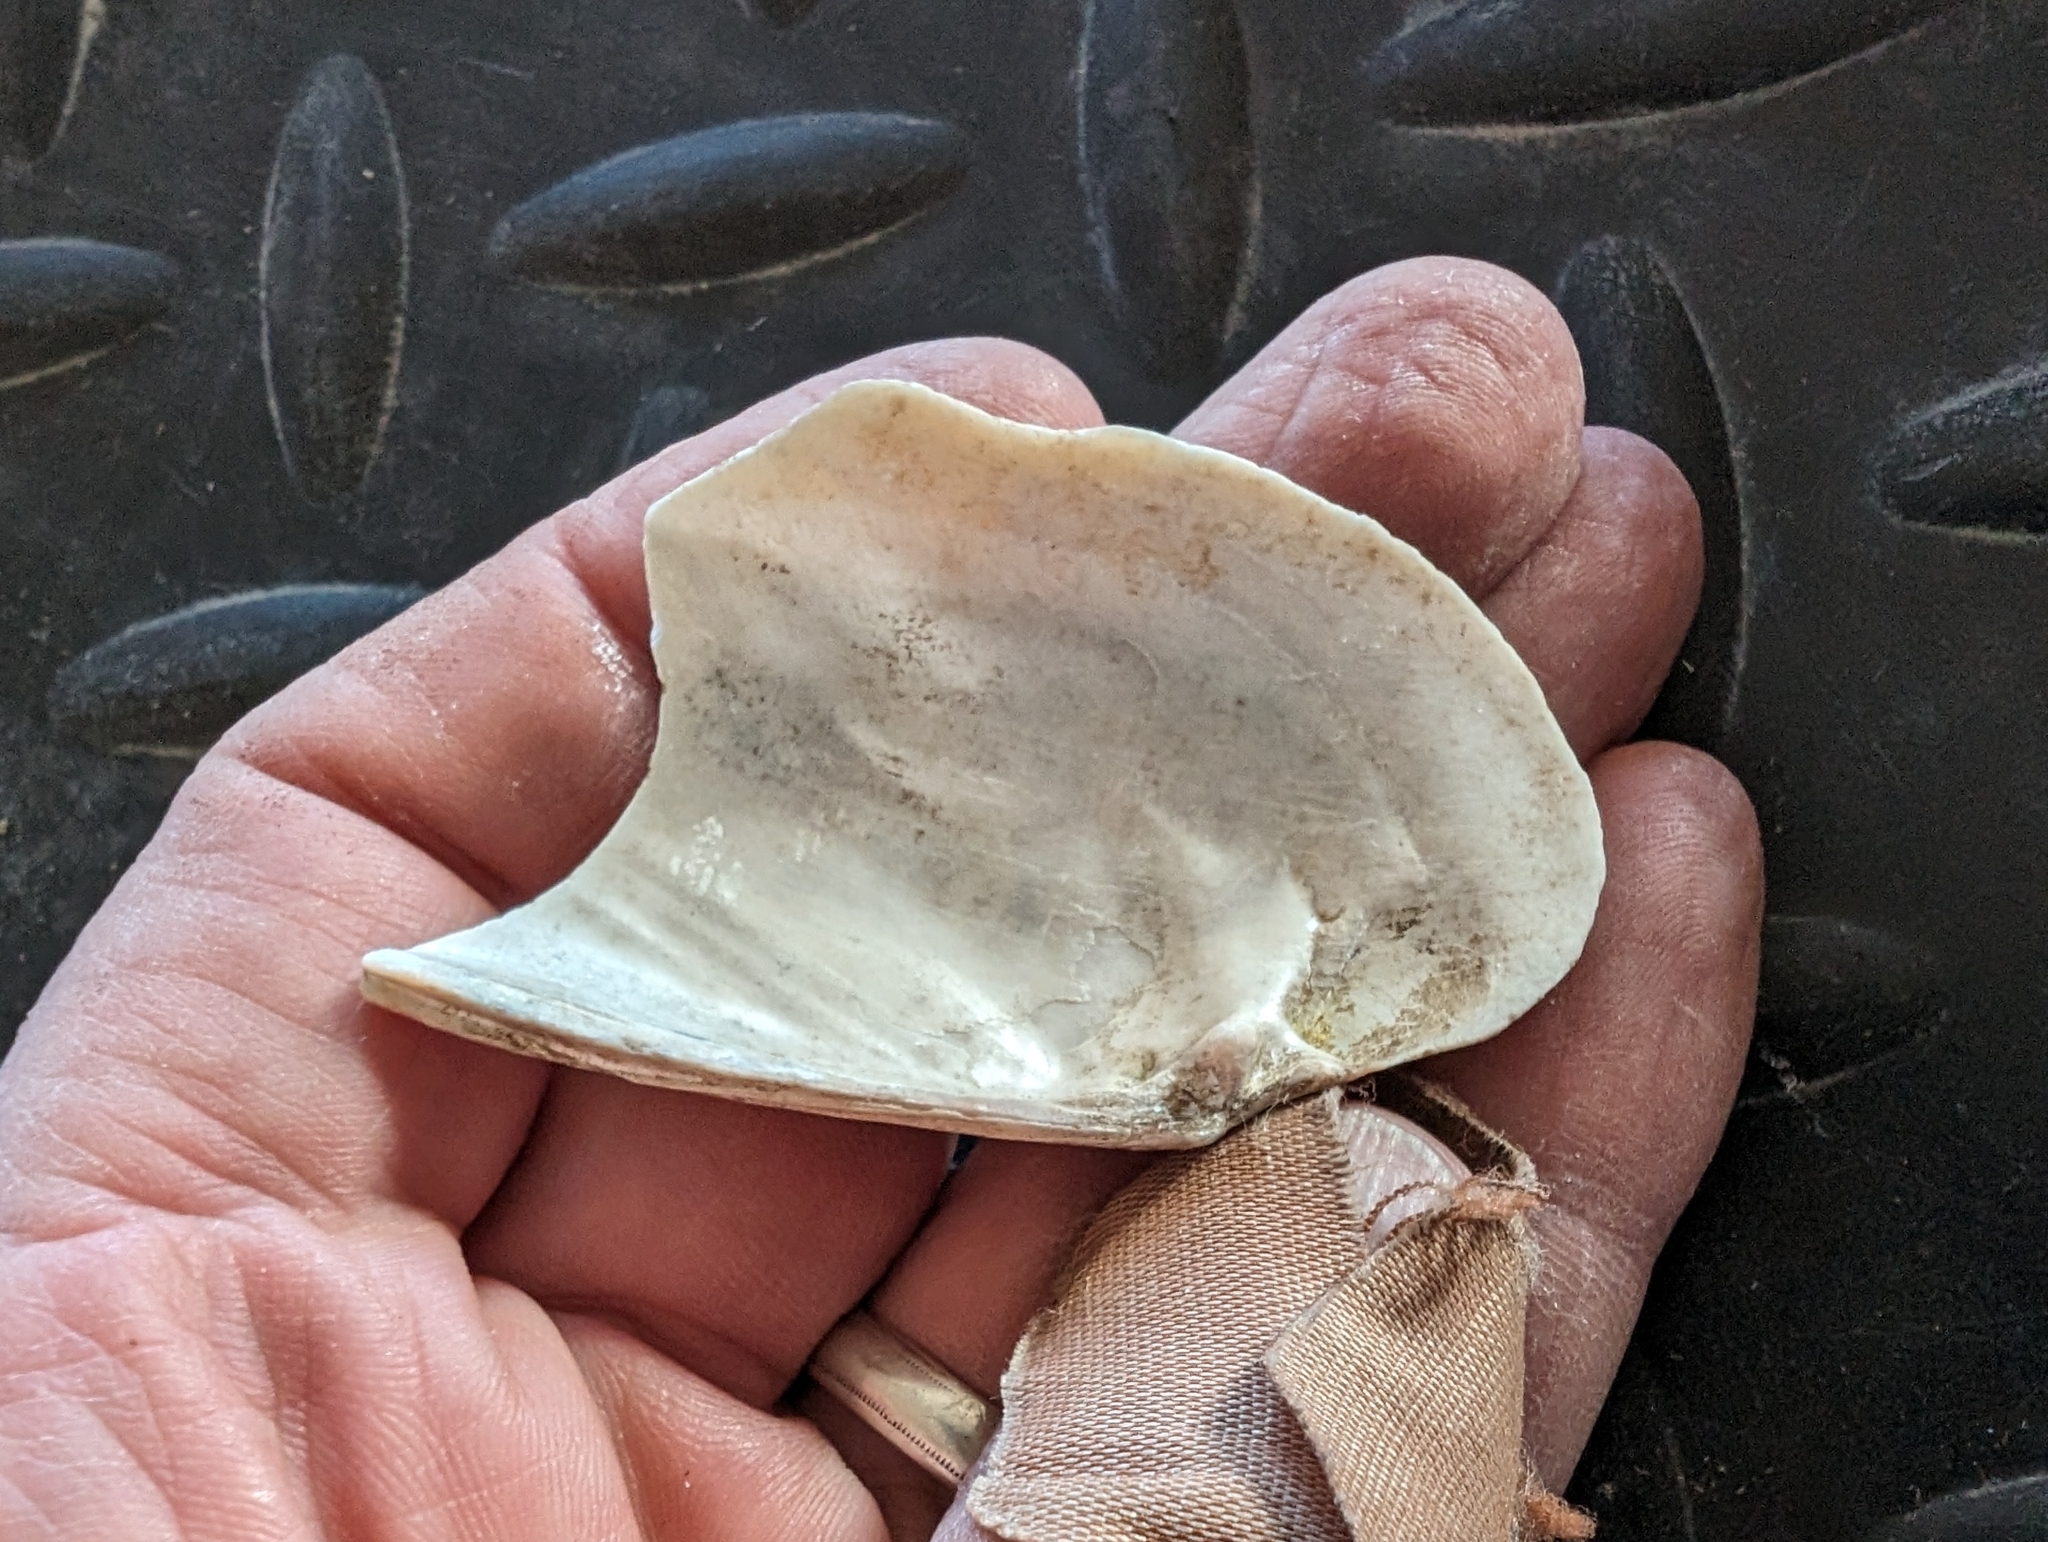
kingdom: Animalia
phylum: Mollusca
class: Bivalvia
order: Unionida
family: Unionidae
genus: Ligumia
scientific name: Ligumia recta
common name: Black sandshell
